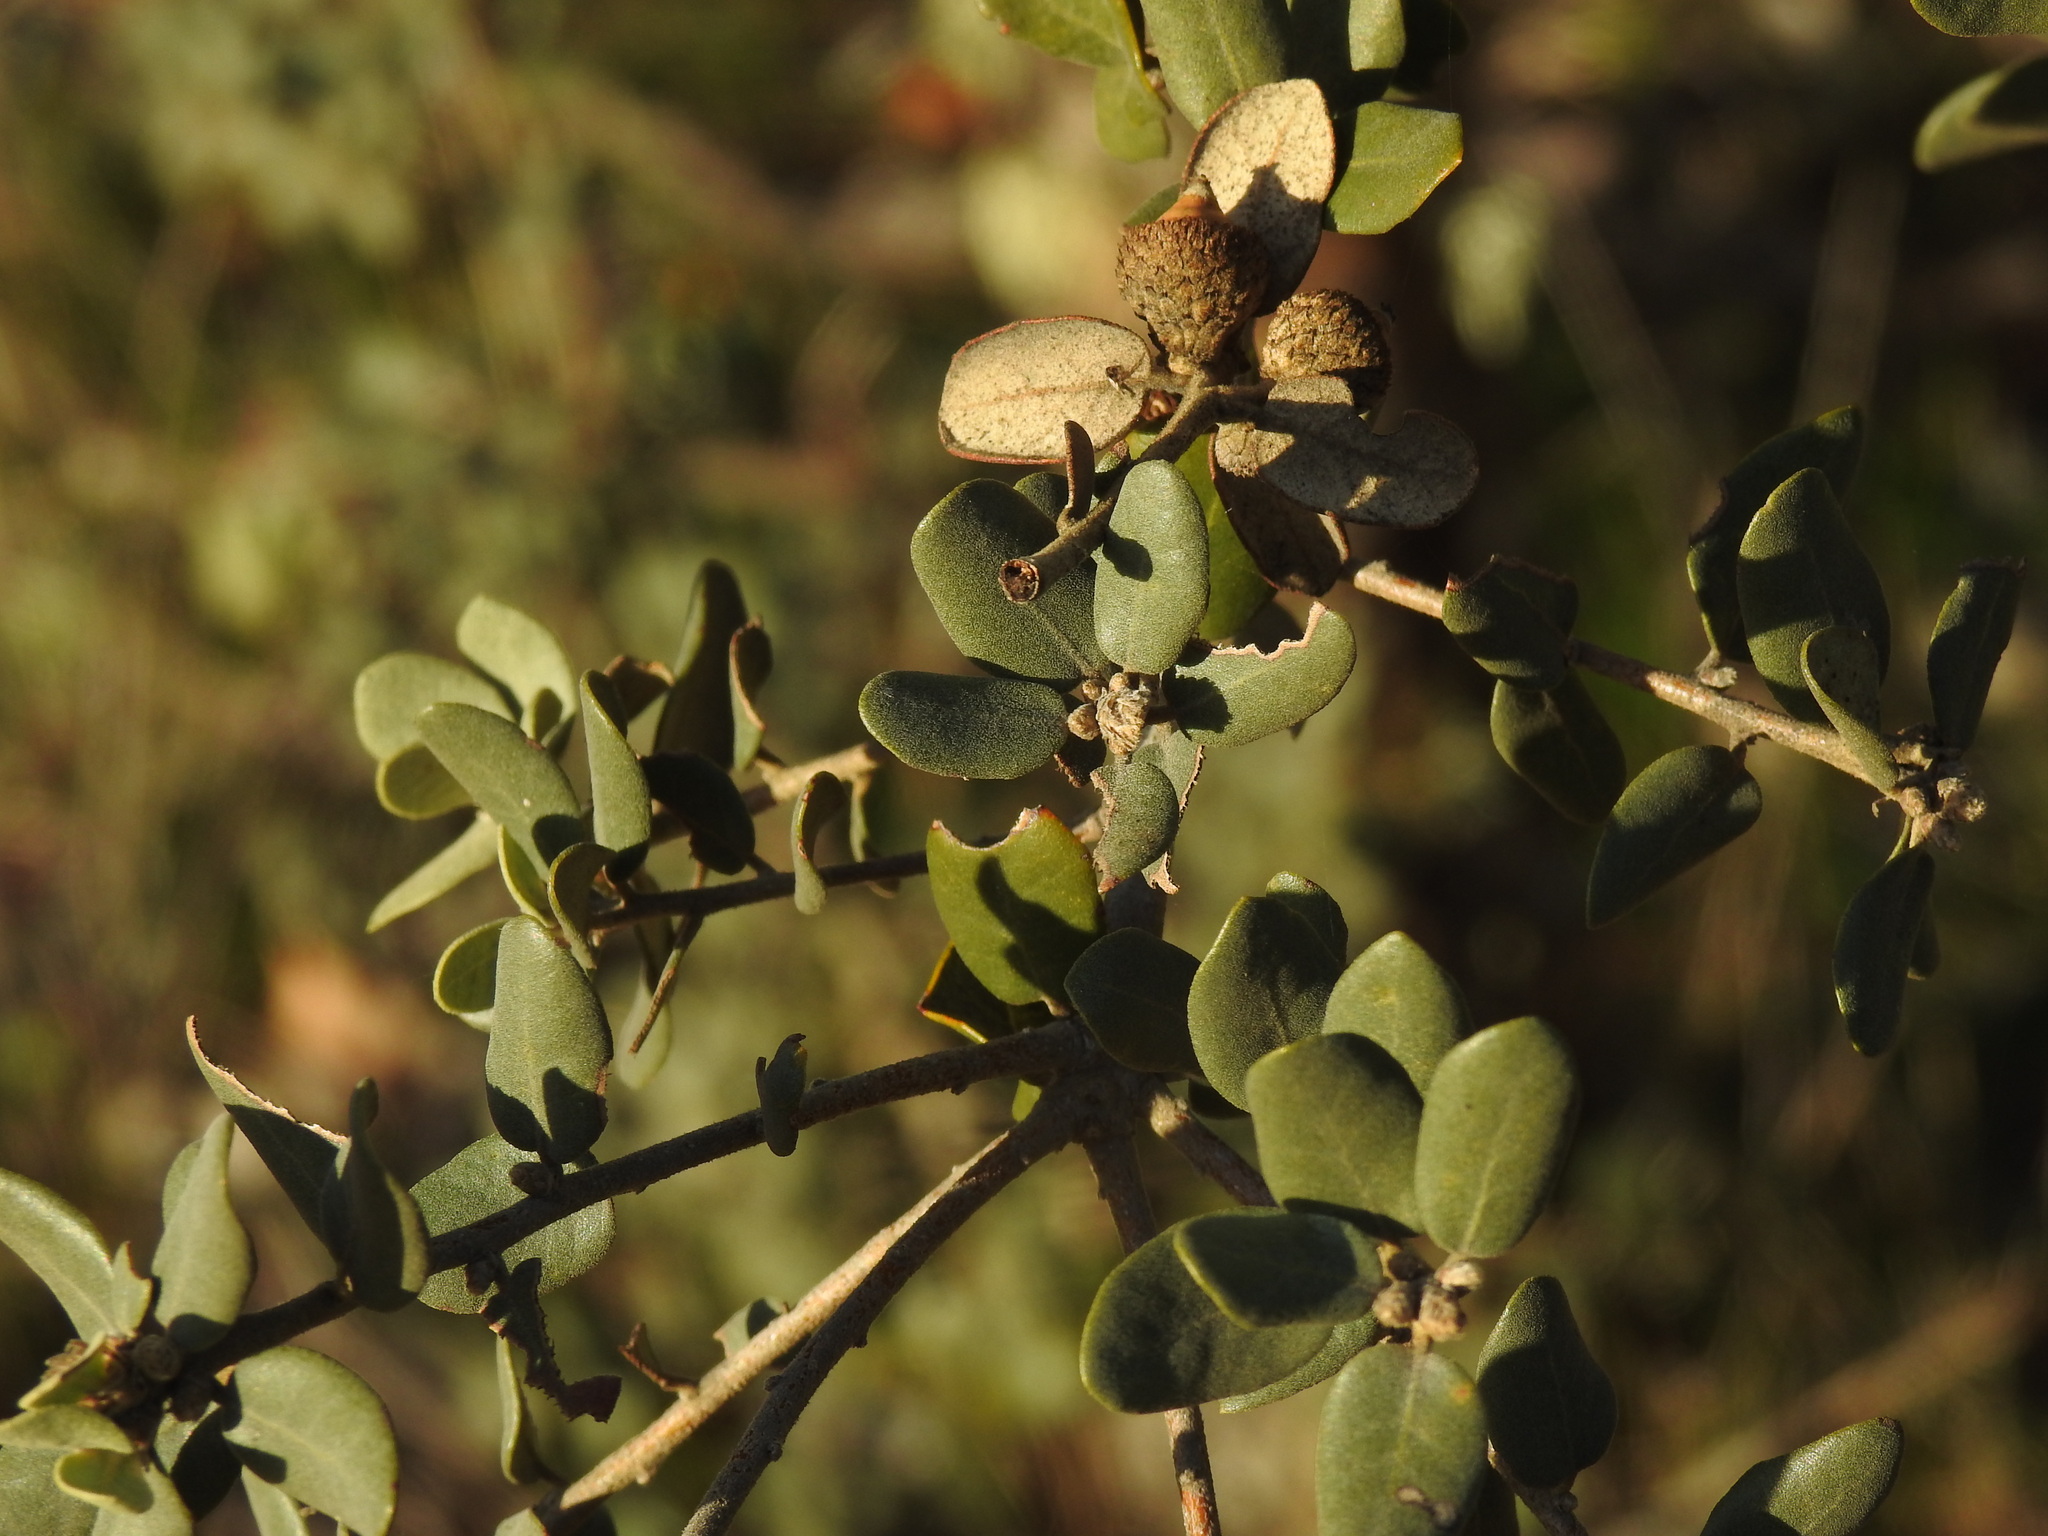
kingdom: Plantae
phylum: Tracheophyta
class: Magnoliopsida
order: Fagales
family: Fagaceae
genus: Quercus
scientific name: Quercus rotundifolia
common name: Holm oak
